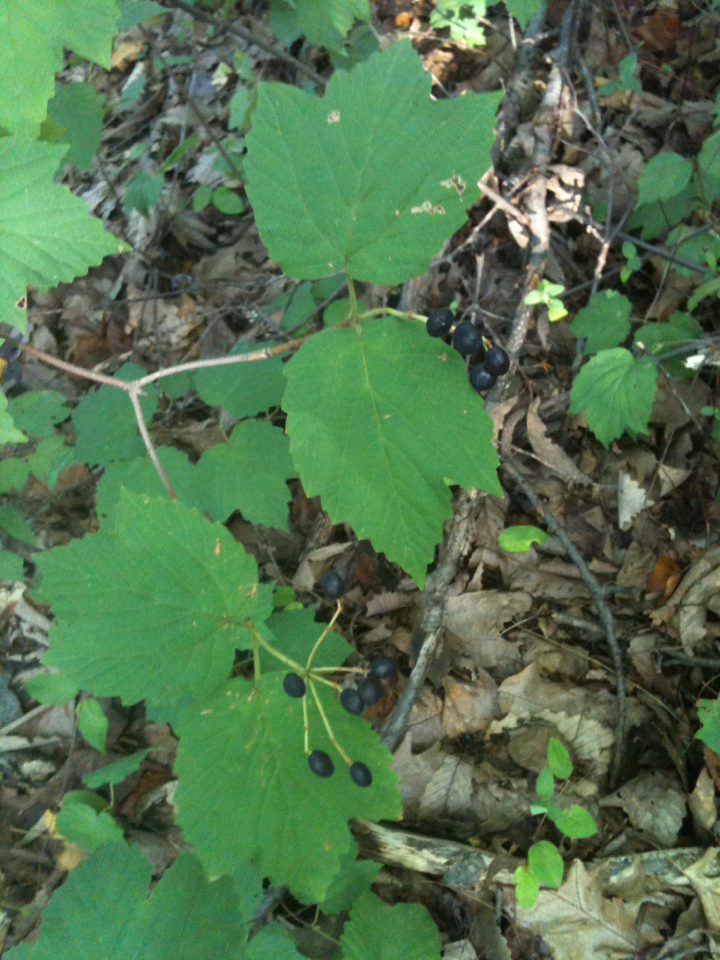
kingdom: Plantae
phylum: Tracheophyta
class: Magnoliopsida
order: Dipsacales
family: Viburnaceae
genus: Viburnum
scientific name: Viburnum acerifolium
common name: Dockmackie
